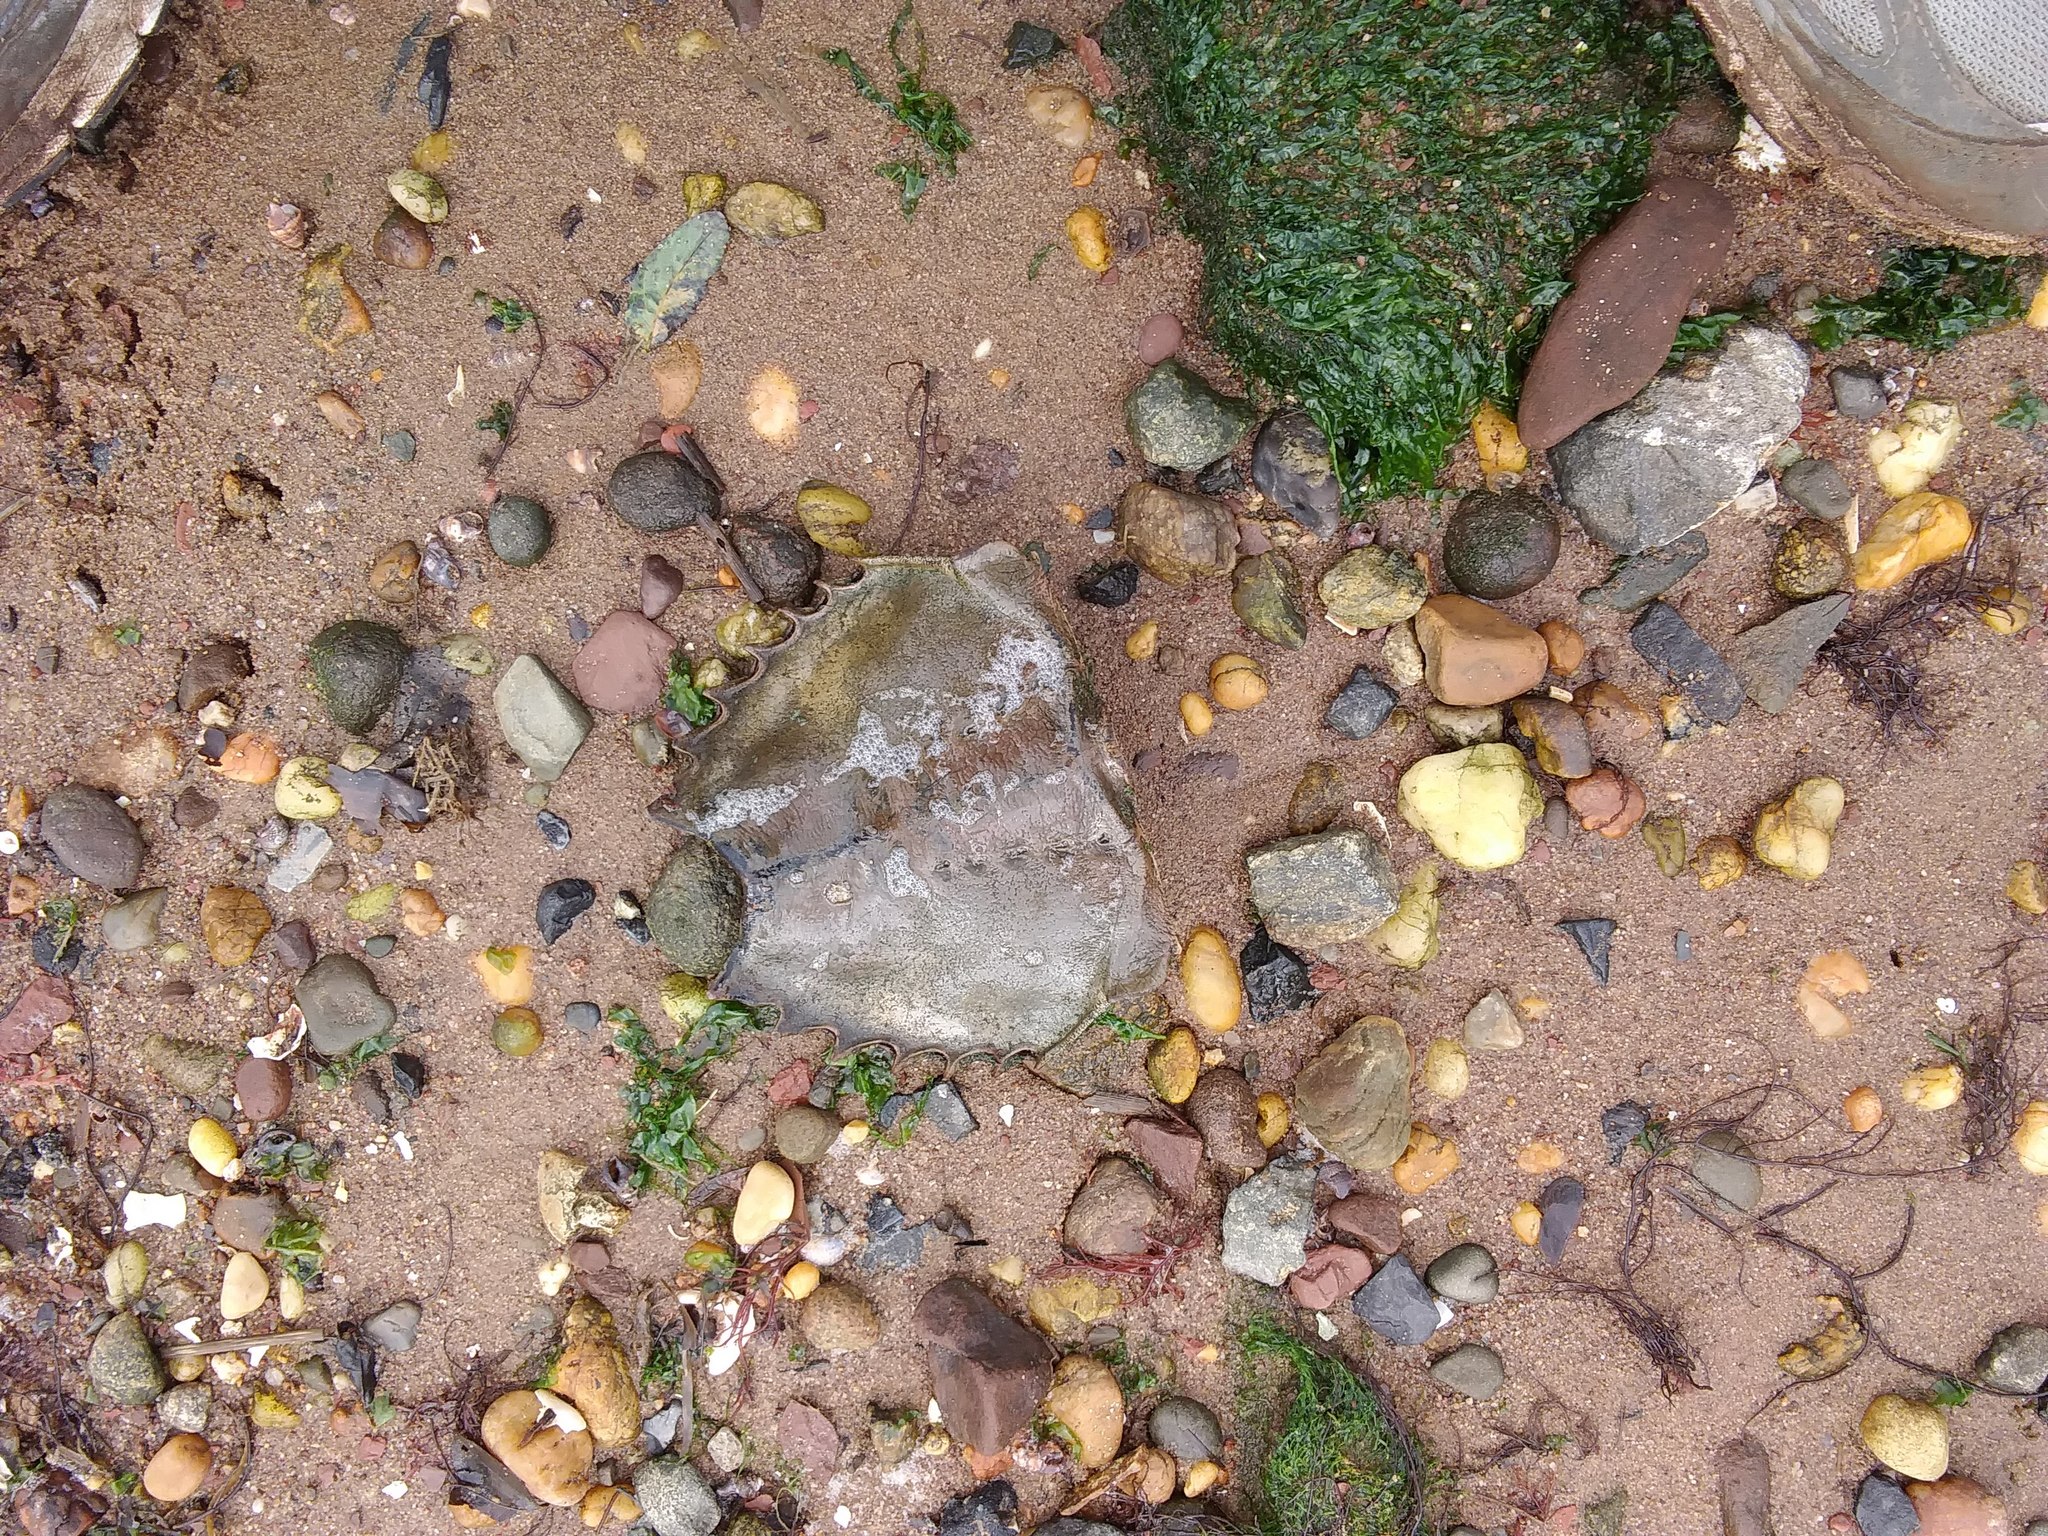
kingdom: Animalia
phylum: Arthropoda
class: Merostomata
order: Xiphosurida
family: Limulidae
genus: Limulus
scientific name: Limulus polyphemus
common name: Horseshoe crab
